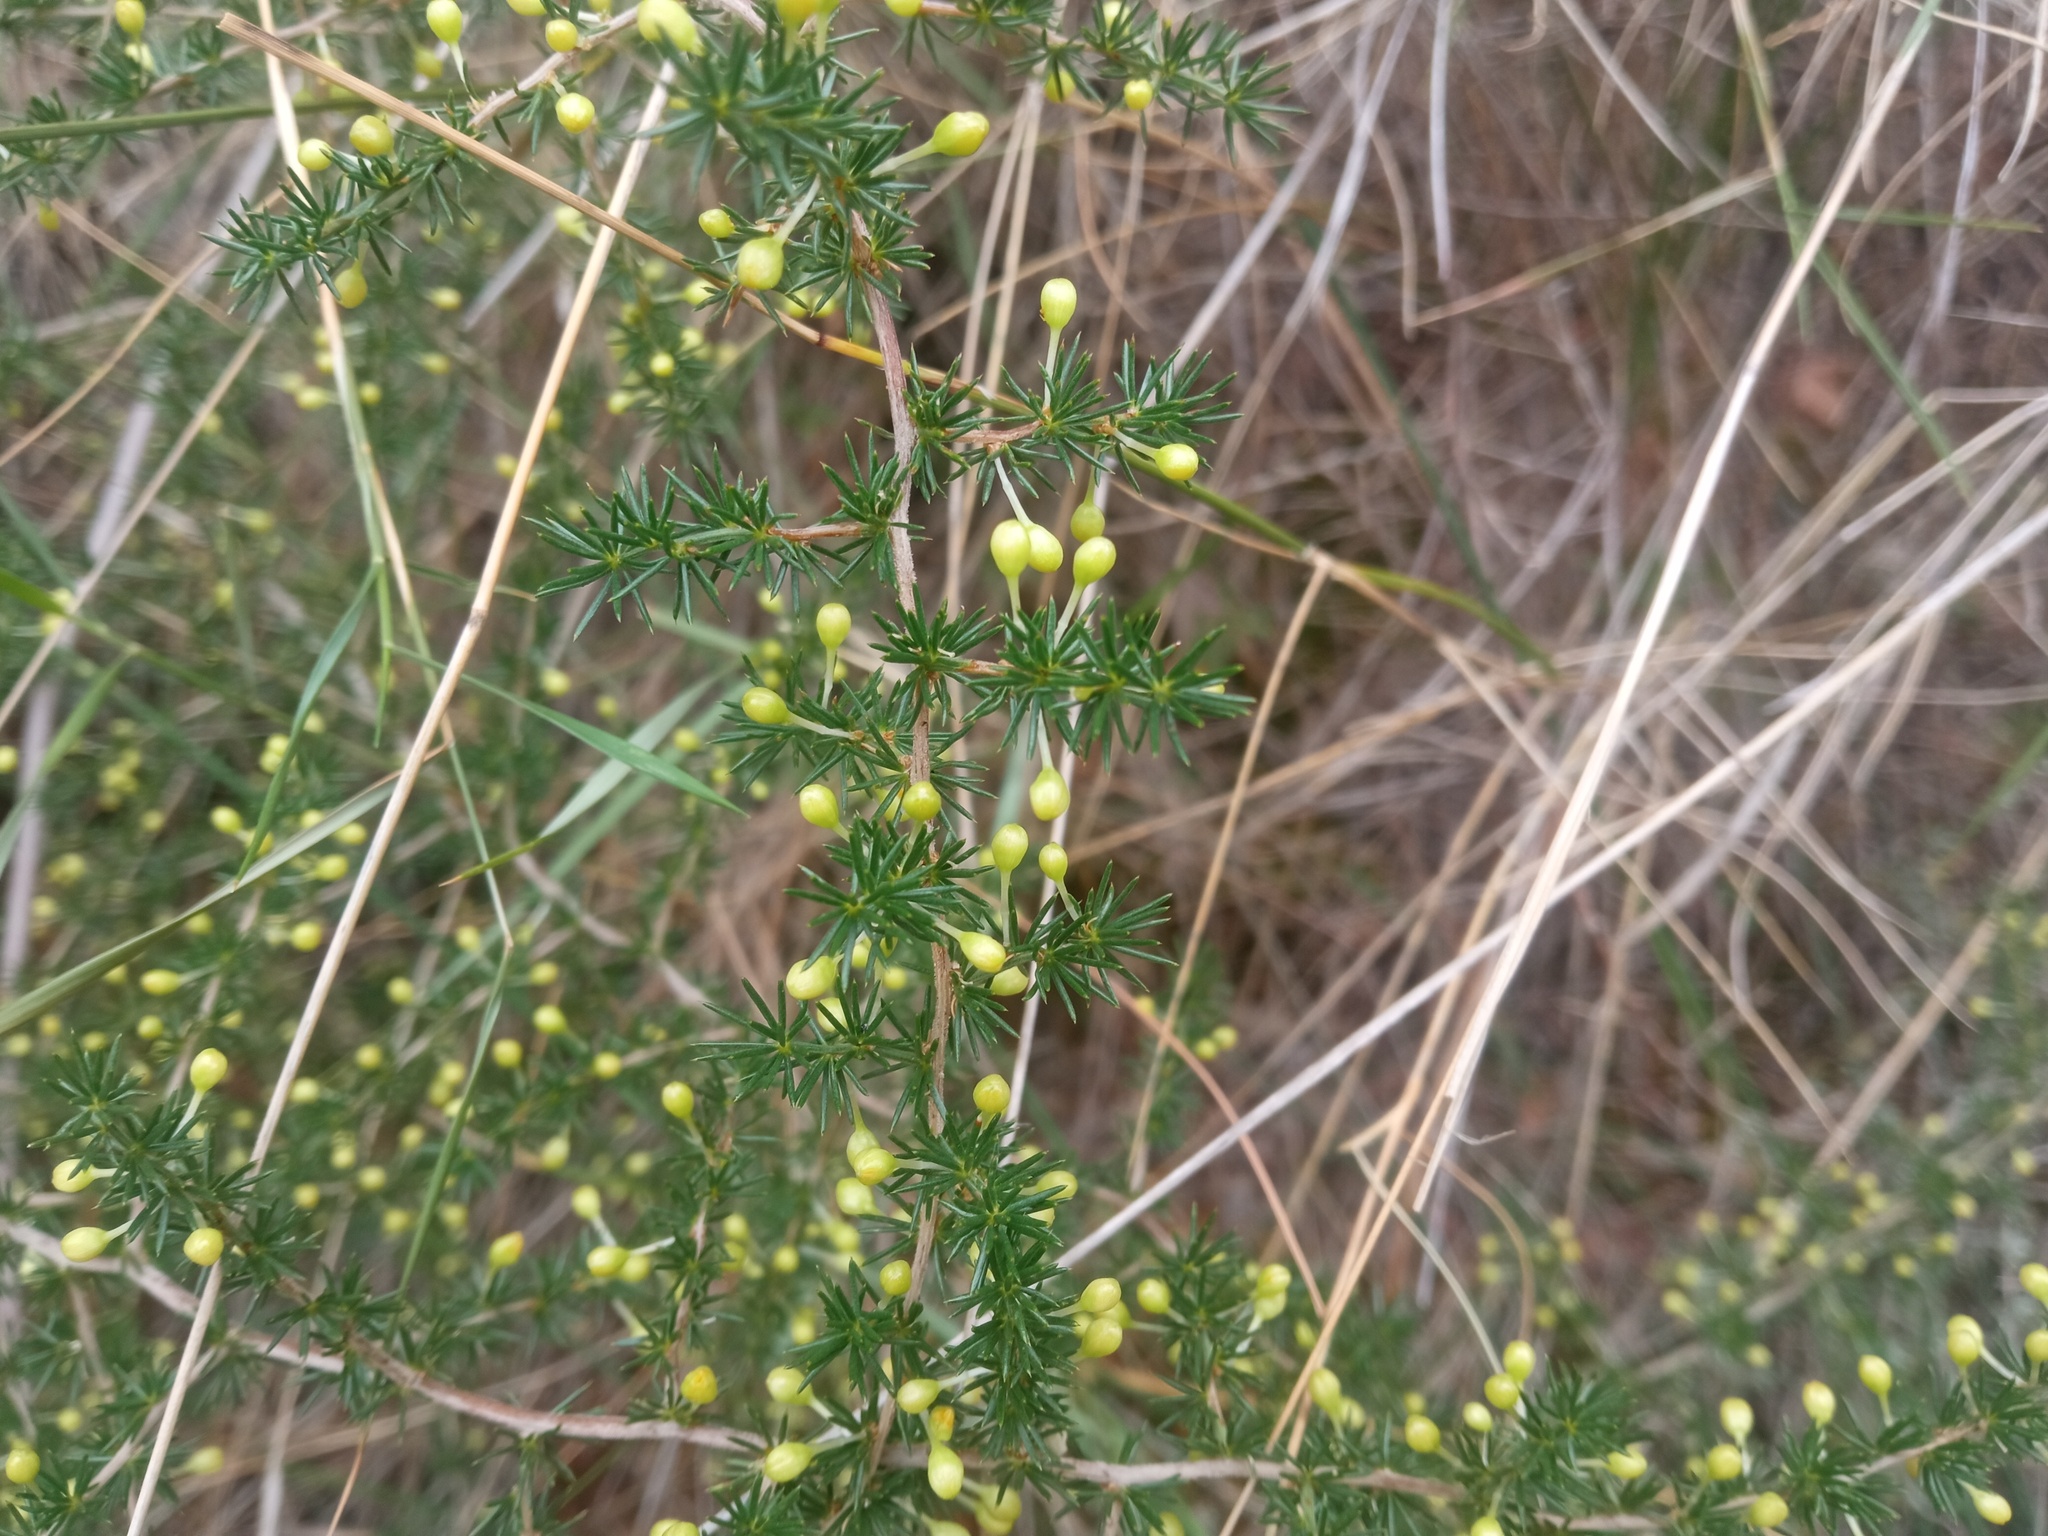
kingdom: Plantae
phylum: Tracheophyta
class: Liliopsida
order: Asparagales
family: Asparagaceae
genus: Asparagus
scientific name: Asparagus acutifolius
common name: Wild asparagus
